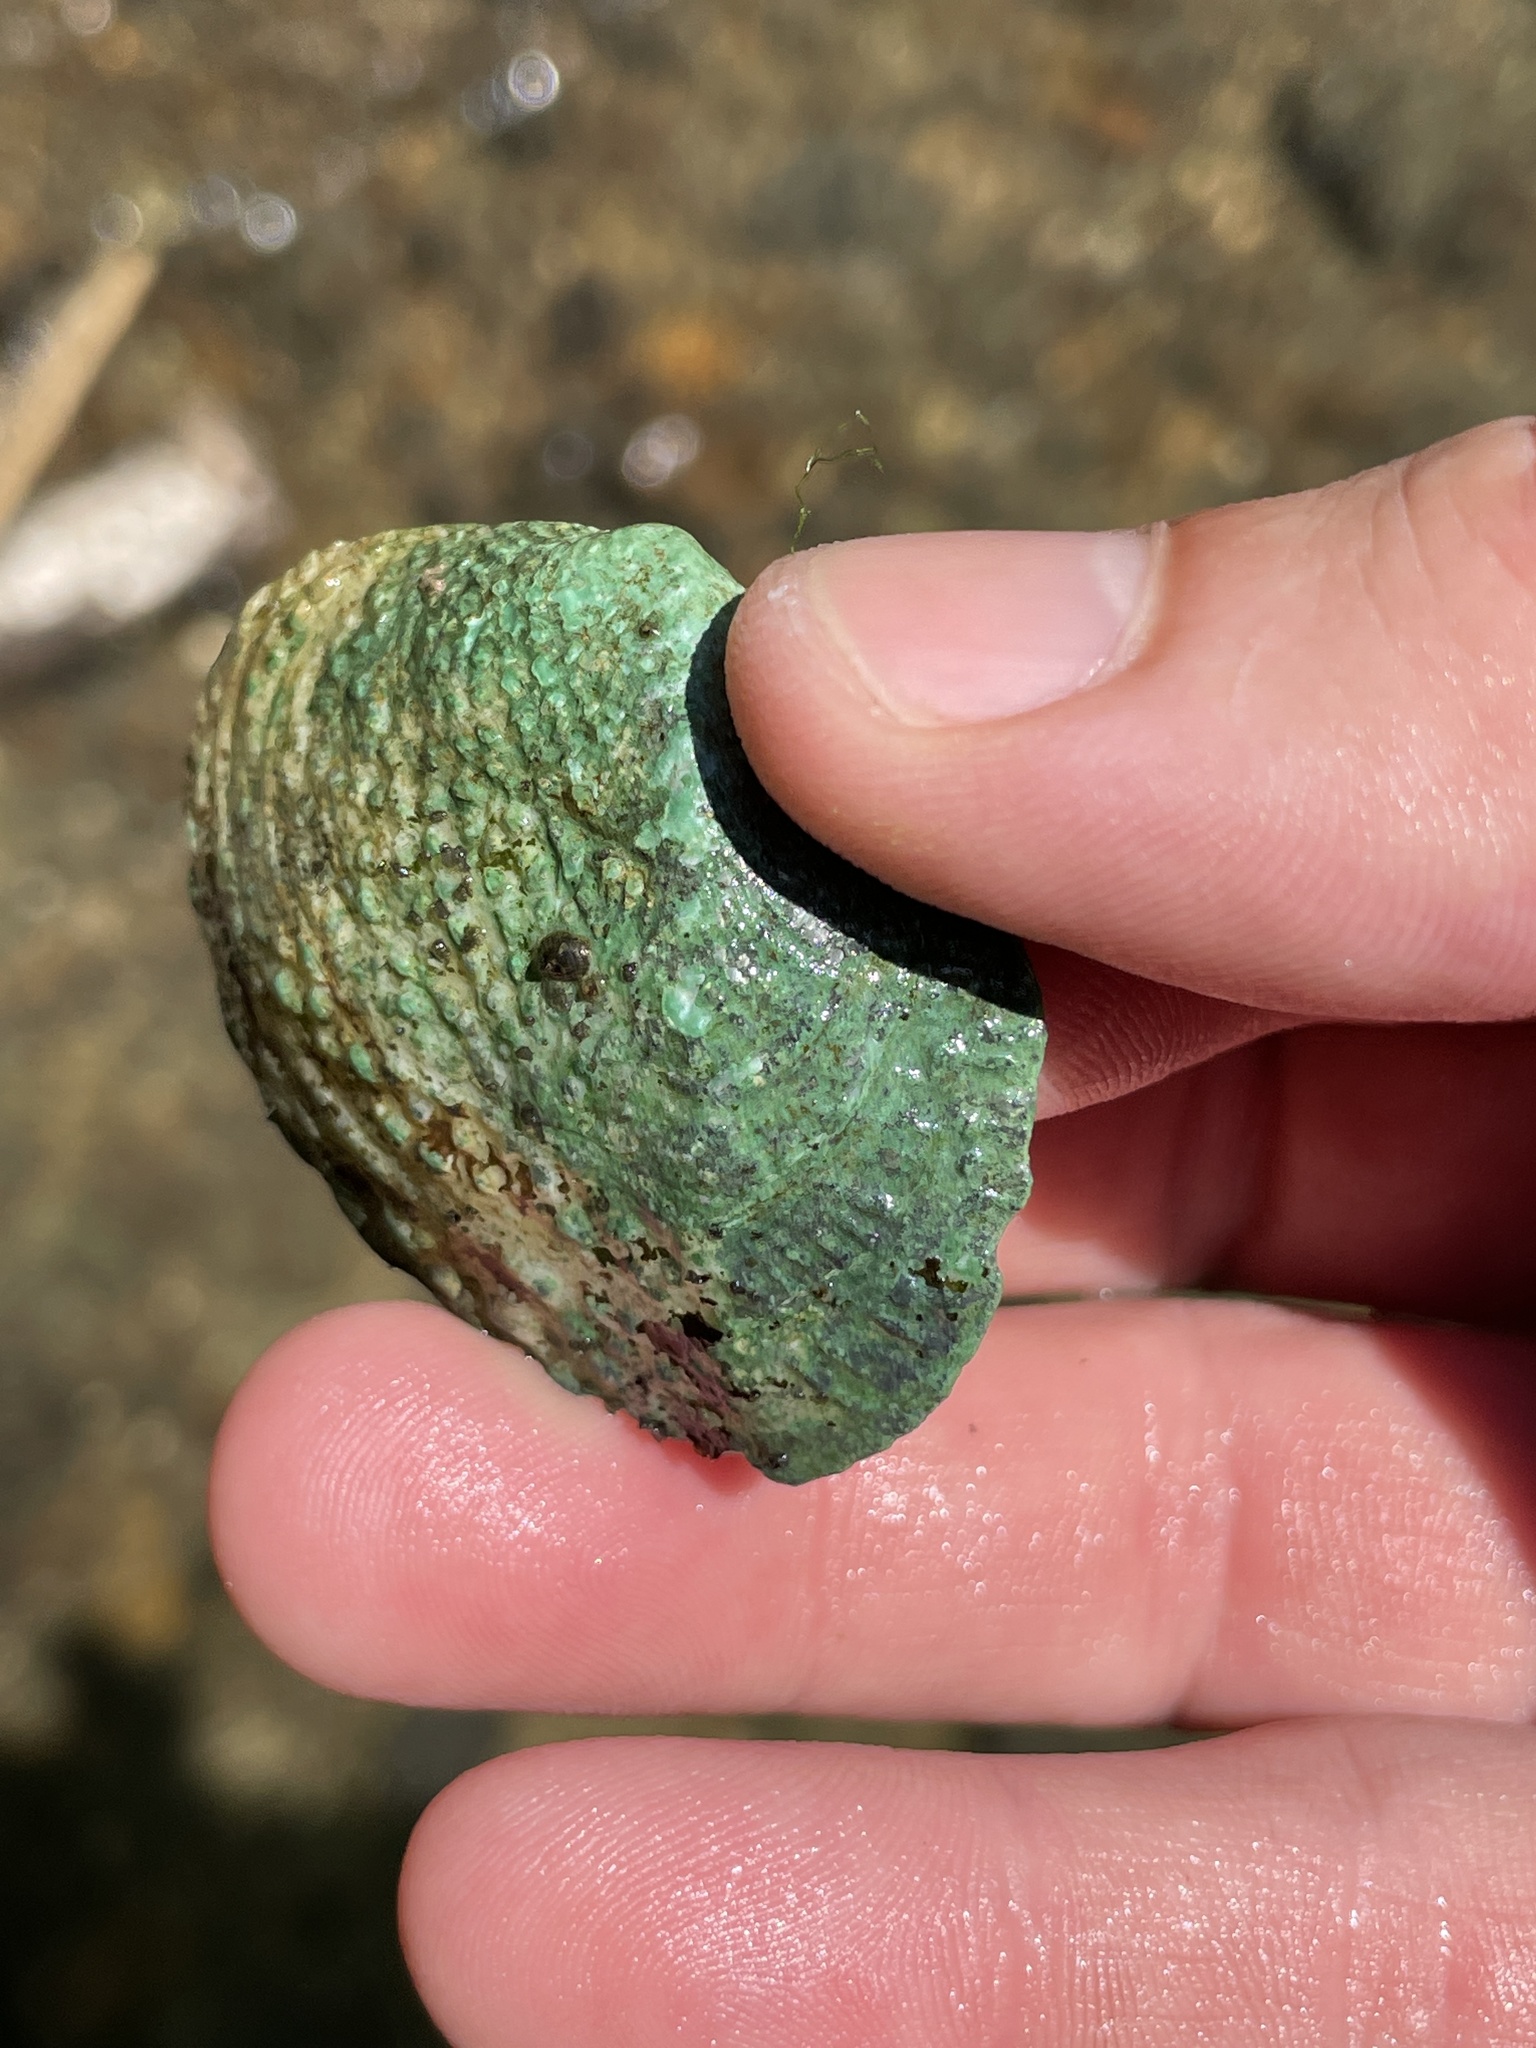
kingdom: Animalia
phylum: Mollusca
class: Bivalvia
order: Unionida
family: Unionidae
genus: Quadrula
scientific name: Quadrula quadrula
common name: Mapleleaf
